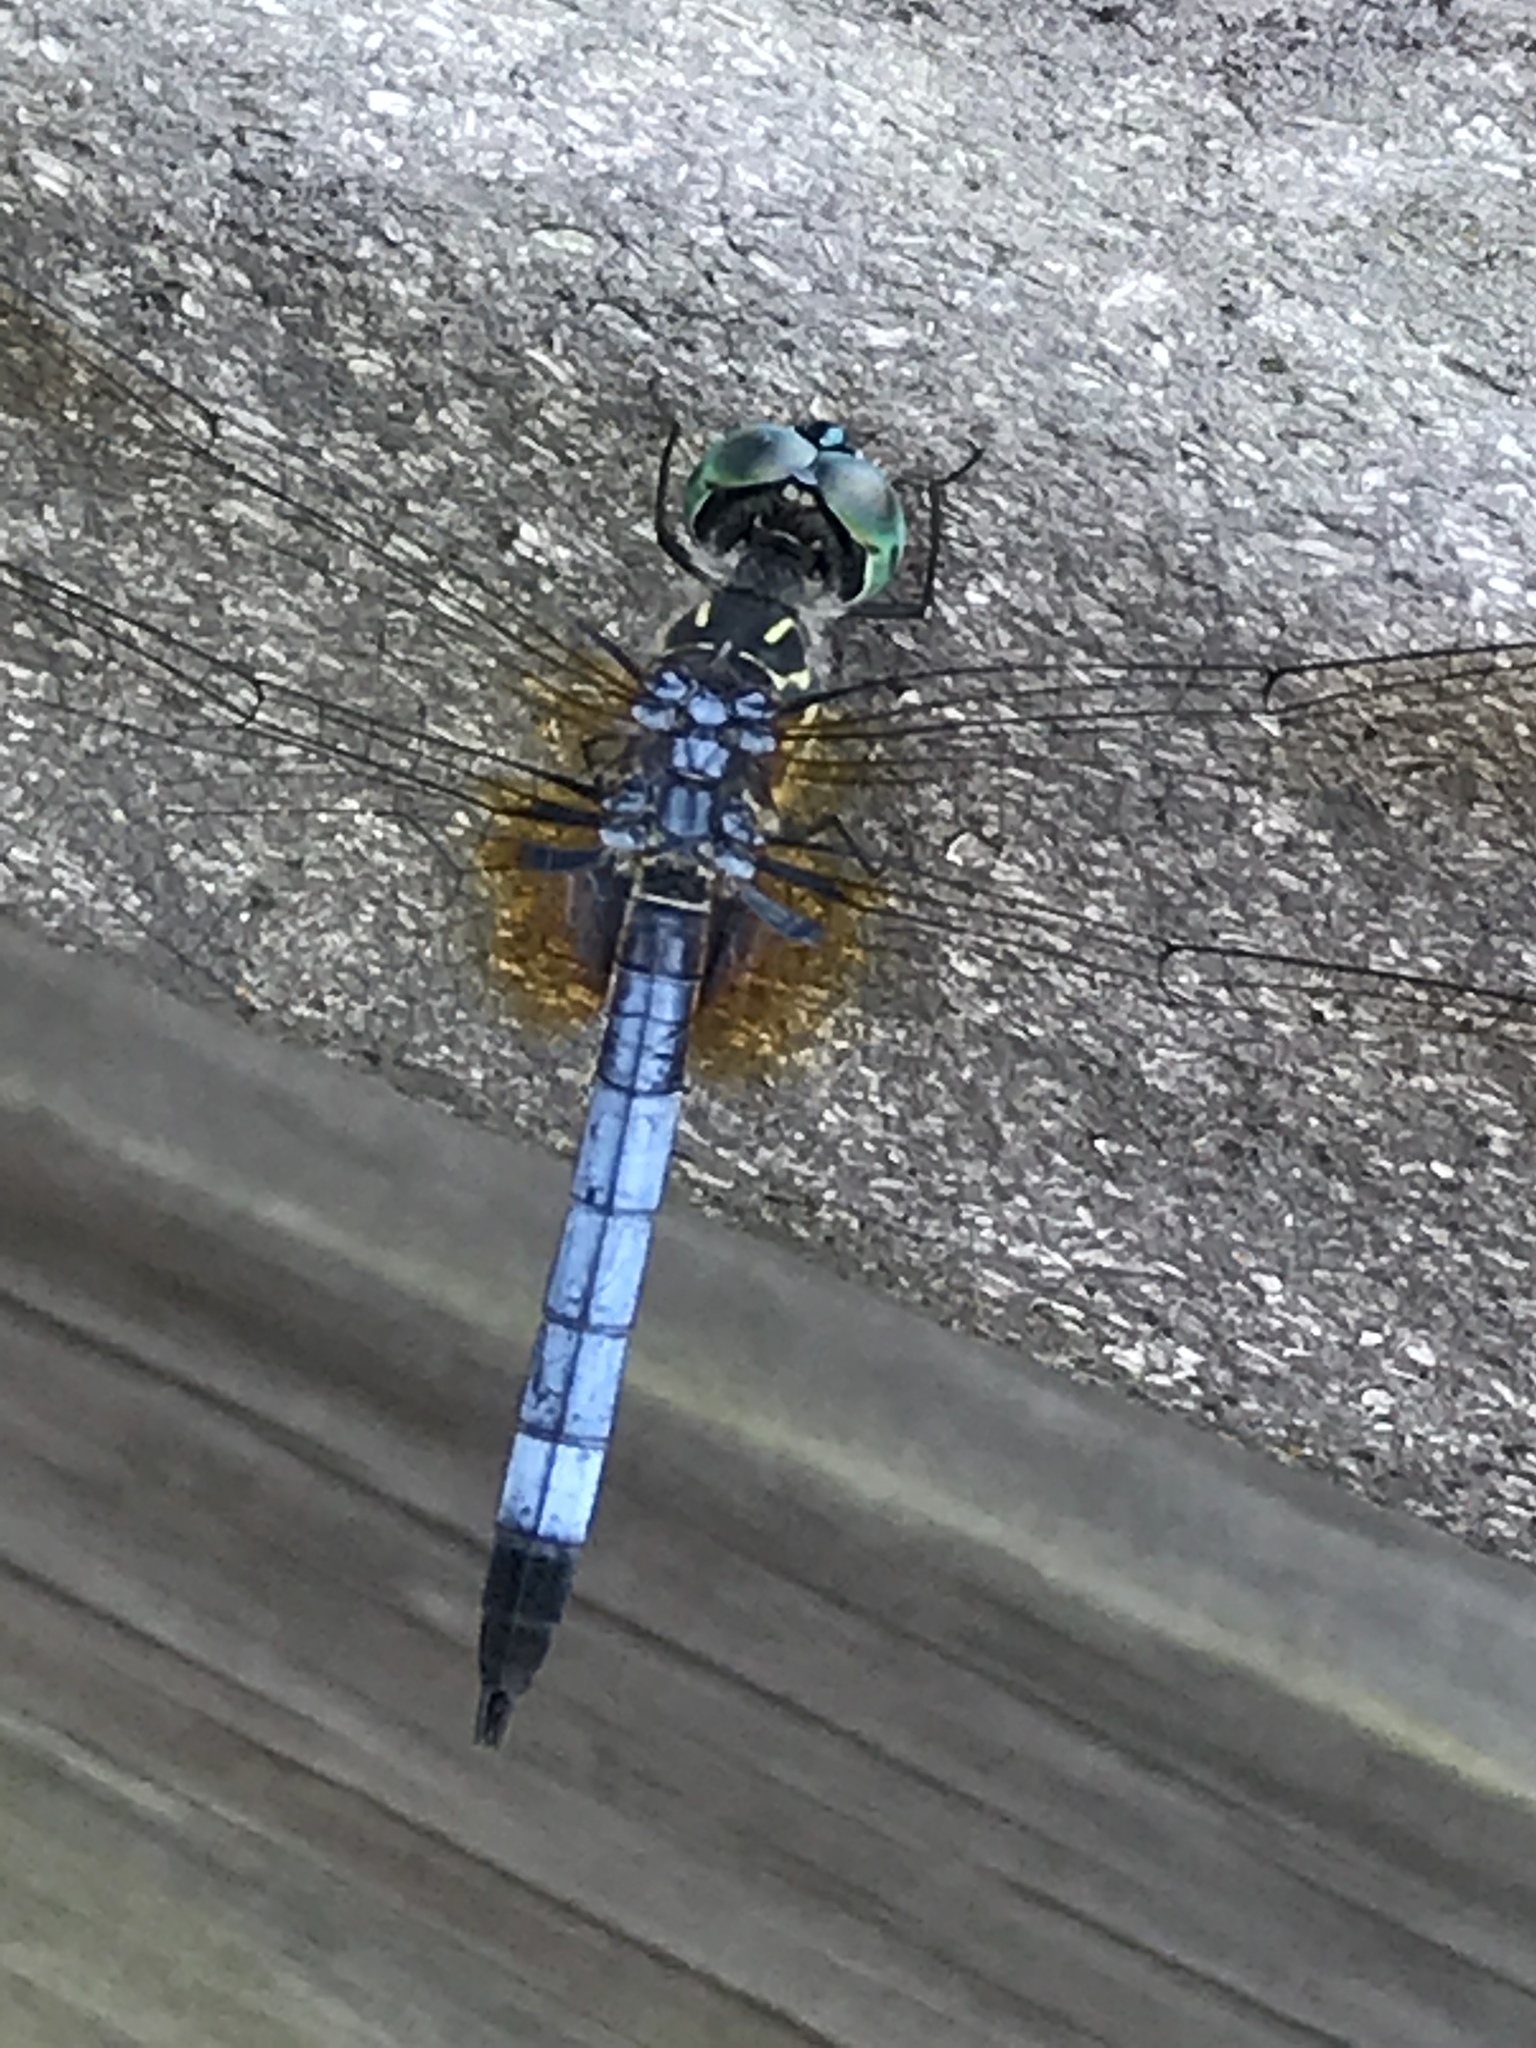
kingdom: Animalia
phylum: Arthropoda
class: Insecta
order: Odonata
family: Libellulidae
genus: Pachydiplax
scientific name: Pachydiplax longipennis
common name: Blue dasher
